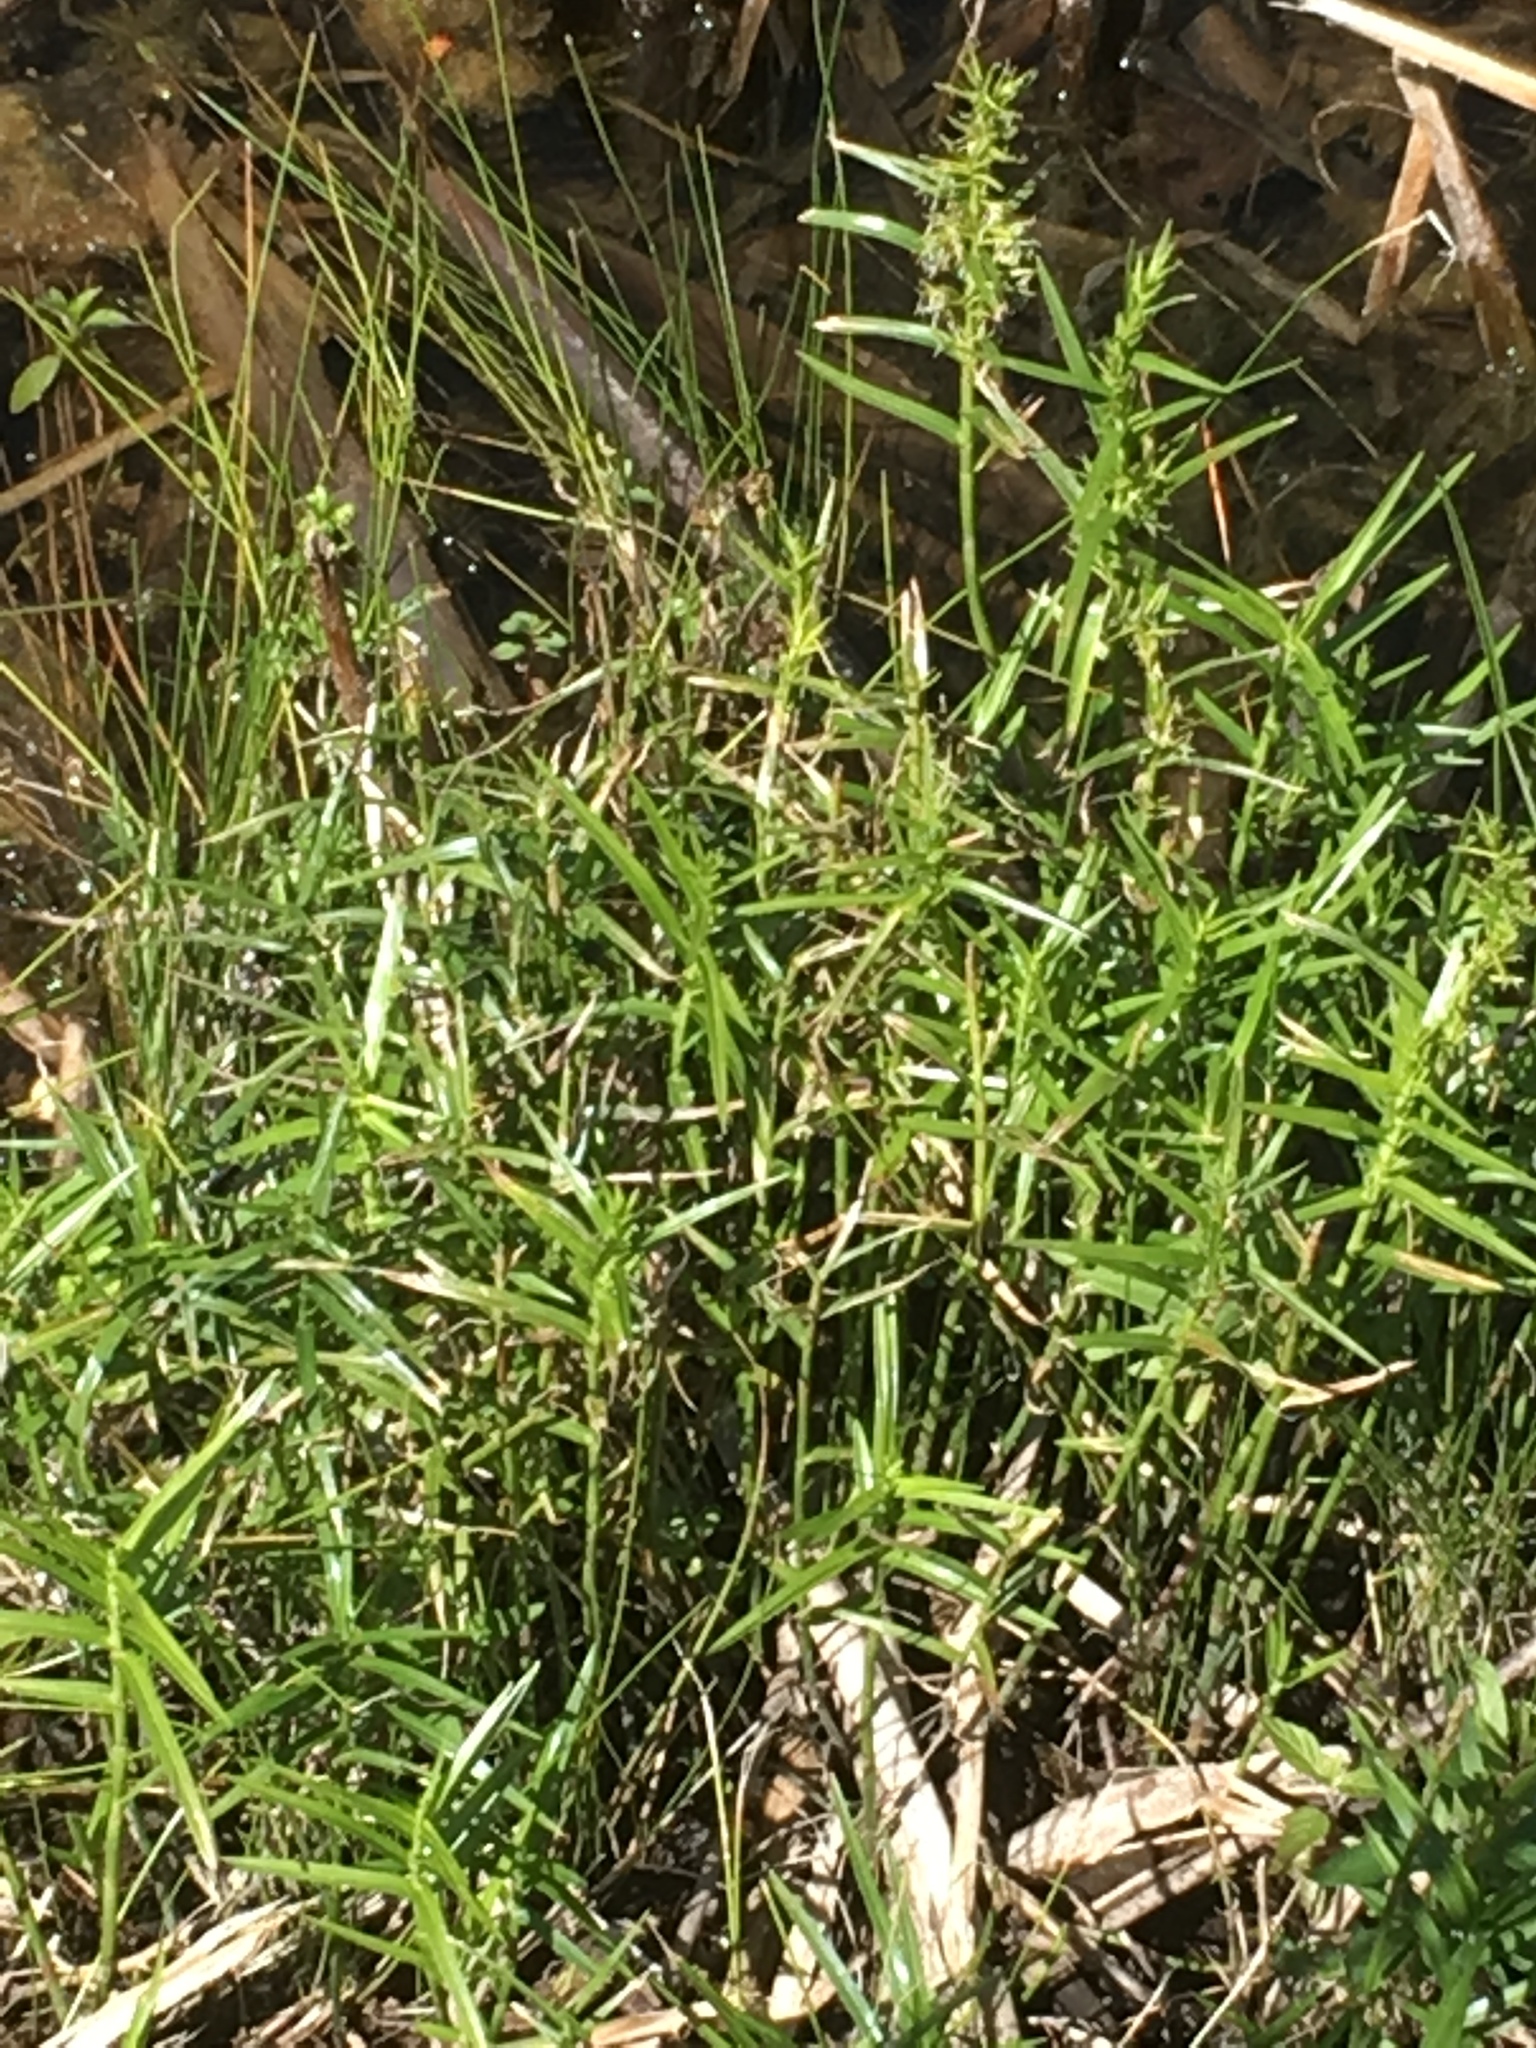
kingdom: Plantae
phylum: Tracheophyta
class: Liliopsida
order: Poales
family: Cyperaceae
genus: Dulichium
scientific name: Dulichium arundinaceum
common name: Three-way sedge
